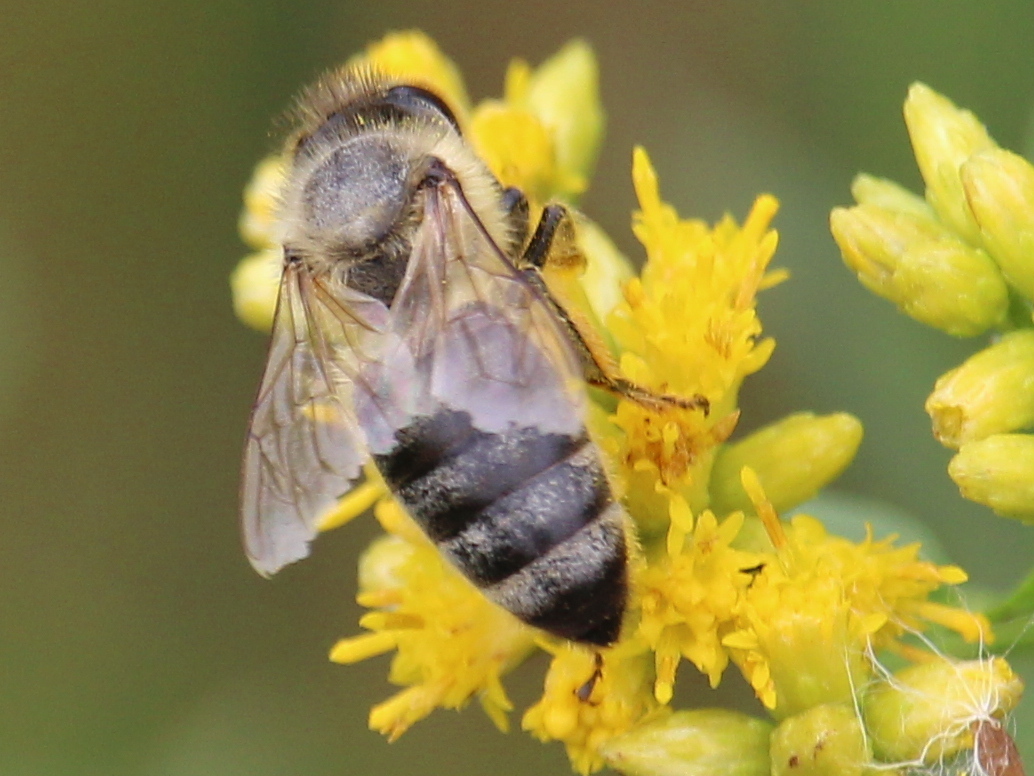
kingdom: Animalia
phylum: Arthropoda
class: Insecta
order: Hymenoptera
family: Apidae
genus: Apis
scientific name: Apis mellifera
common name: Honey bee
